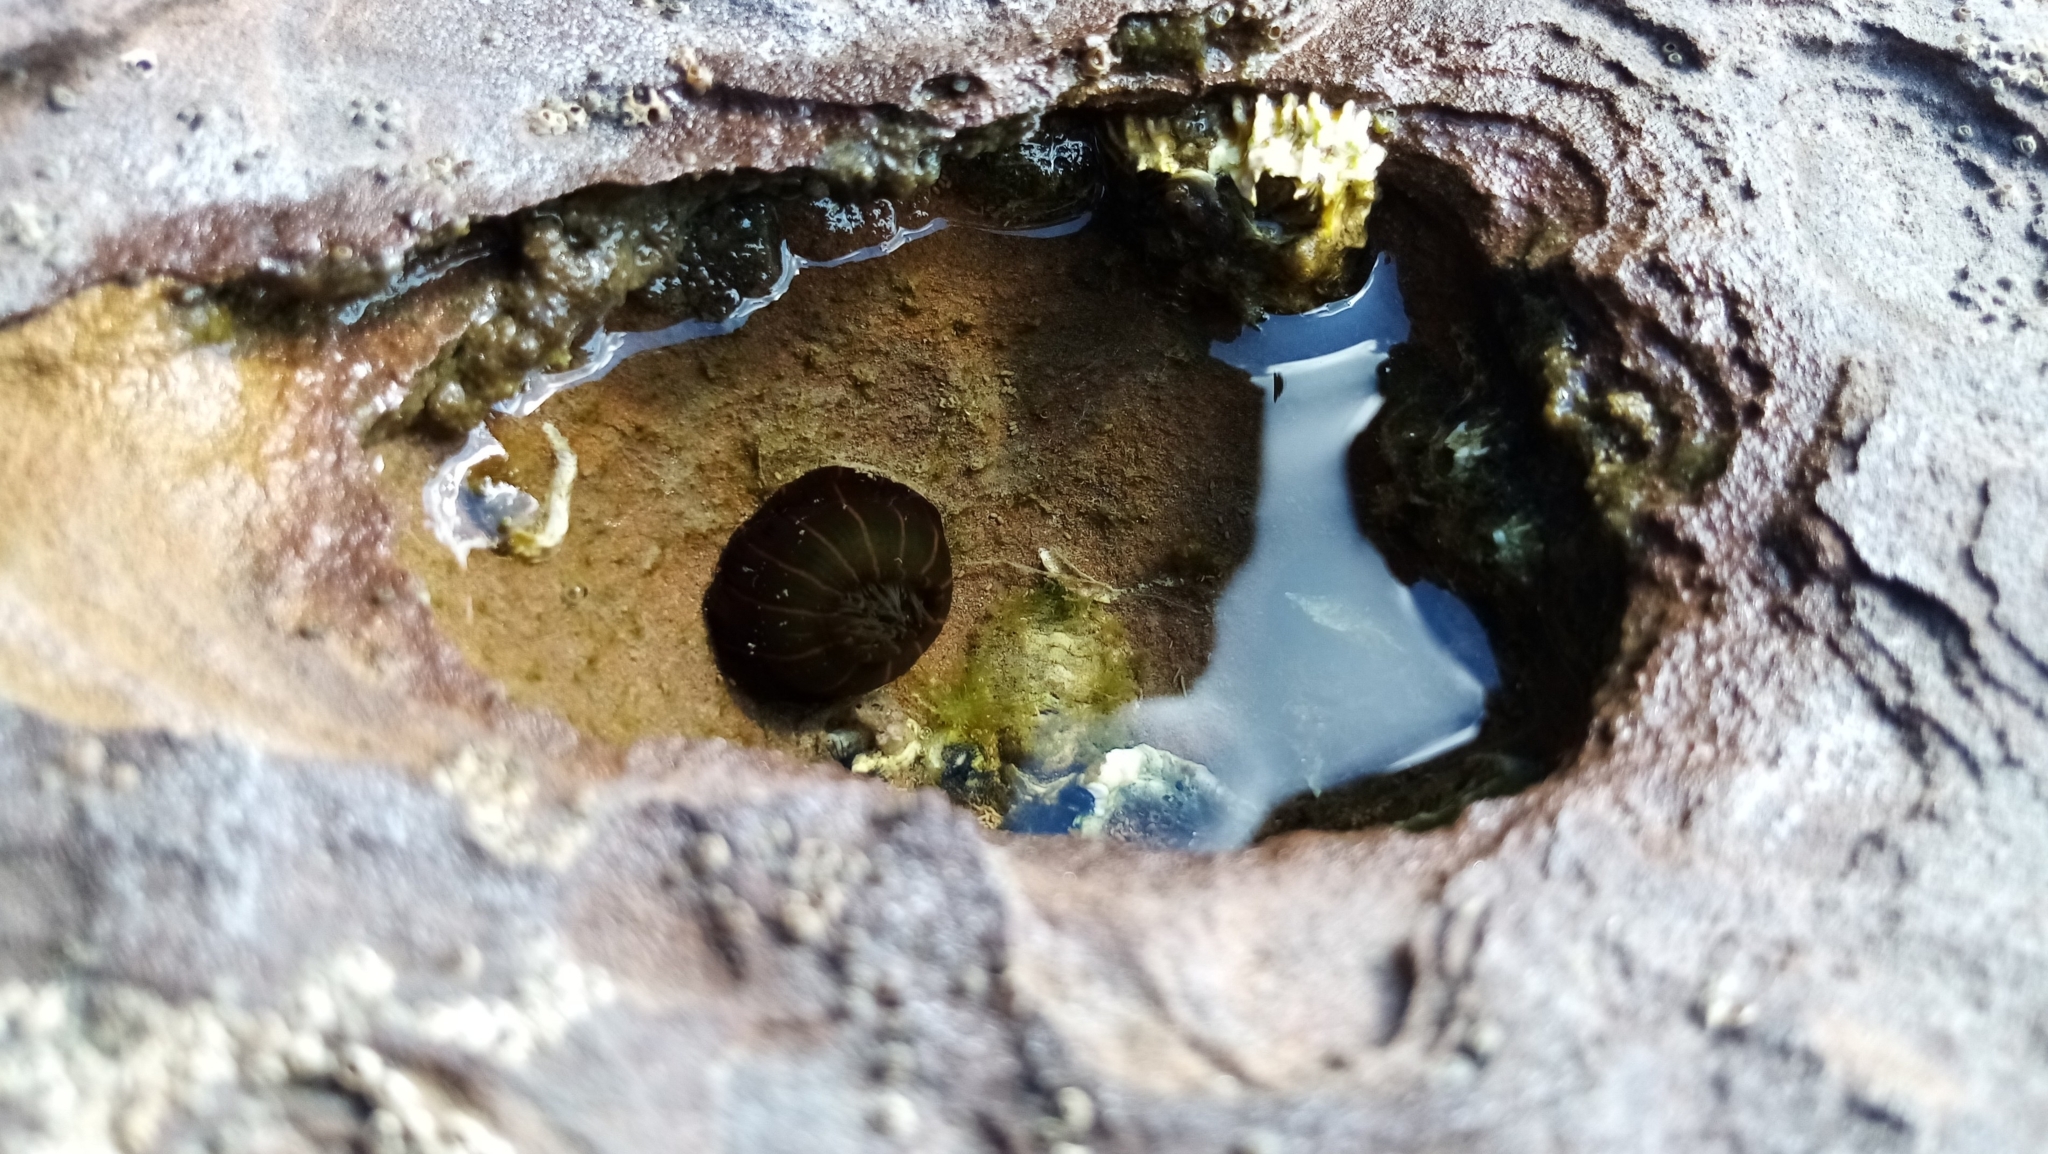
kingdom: Animalia
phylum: Cnidaria
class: Anthozoa
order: Actiniaria
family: Diadumenidae
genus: Diadumene
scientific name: Diadumene lineata
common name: Orange-striped anemone
